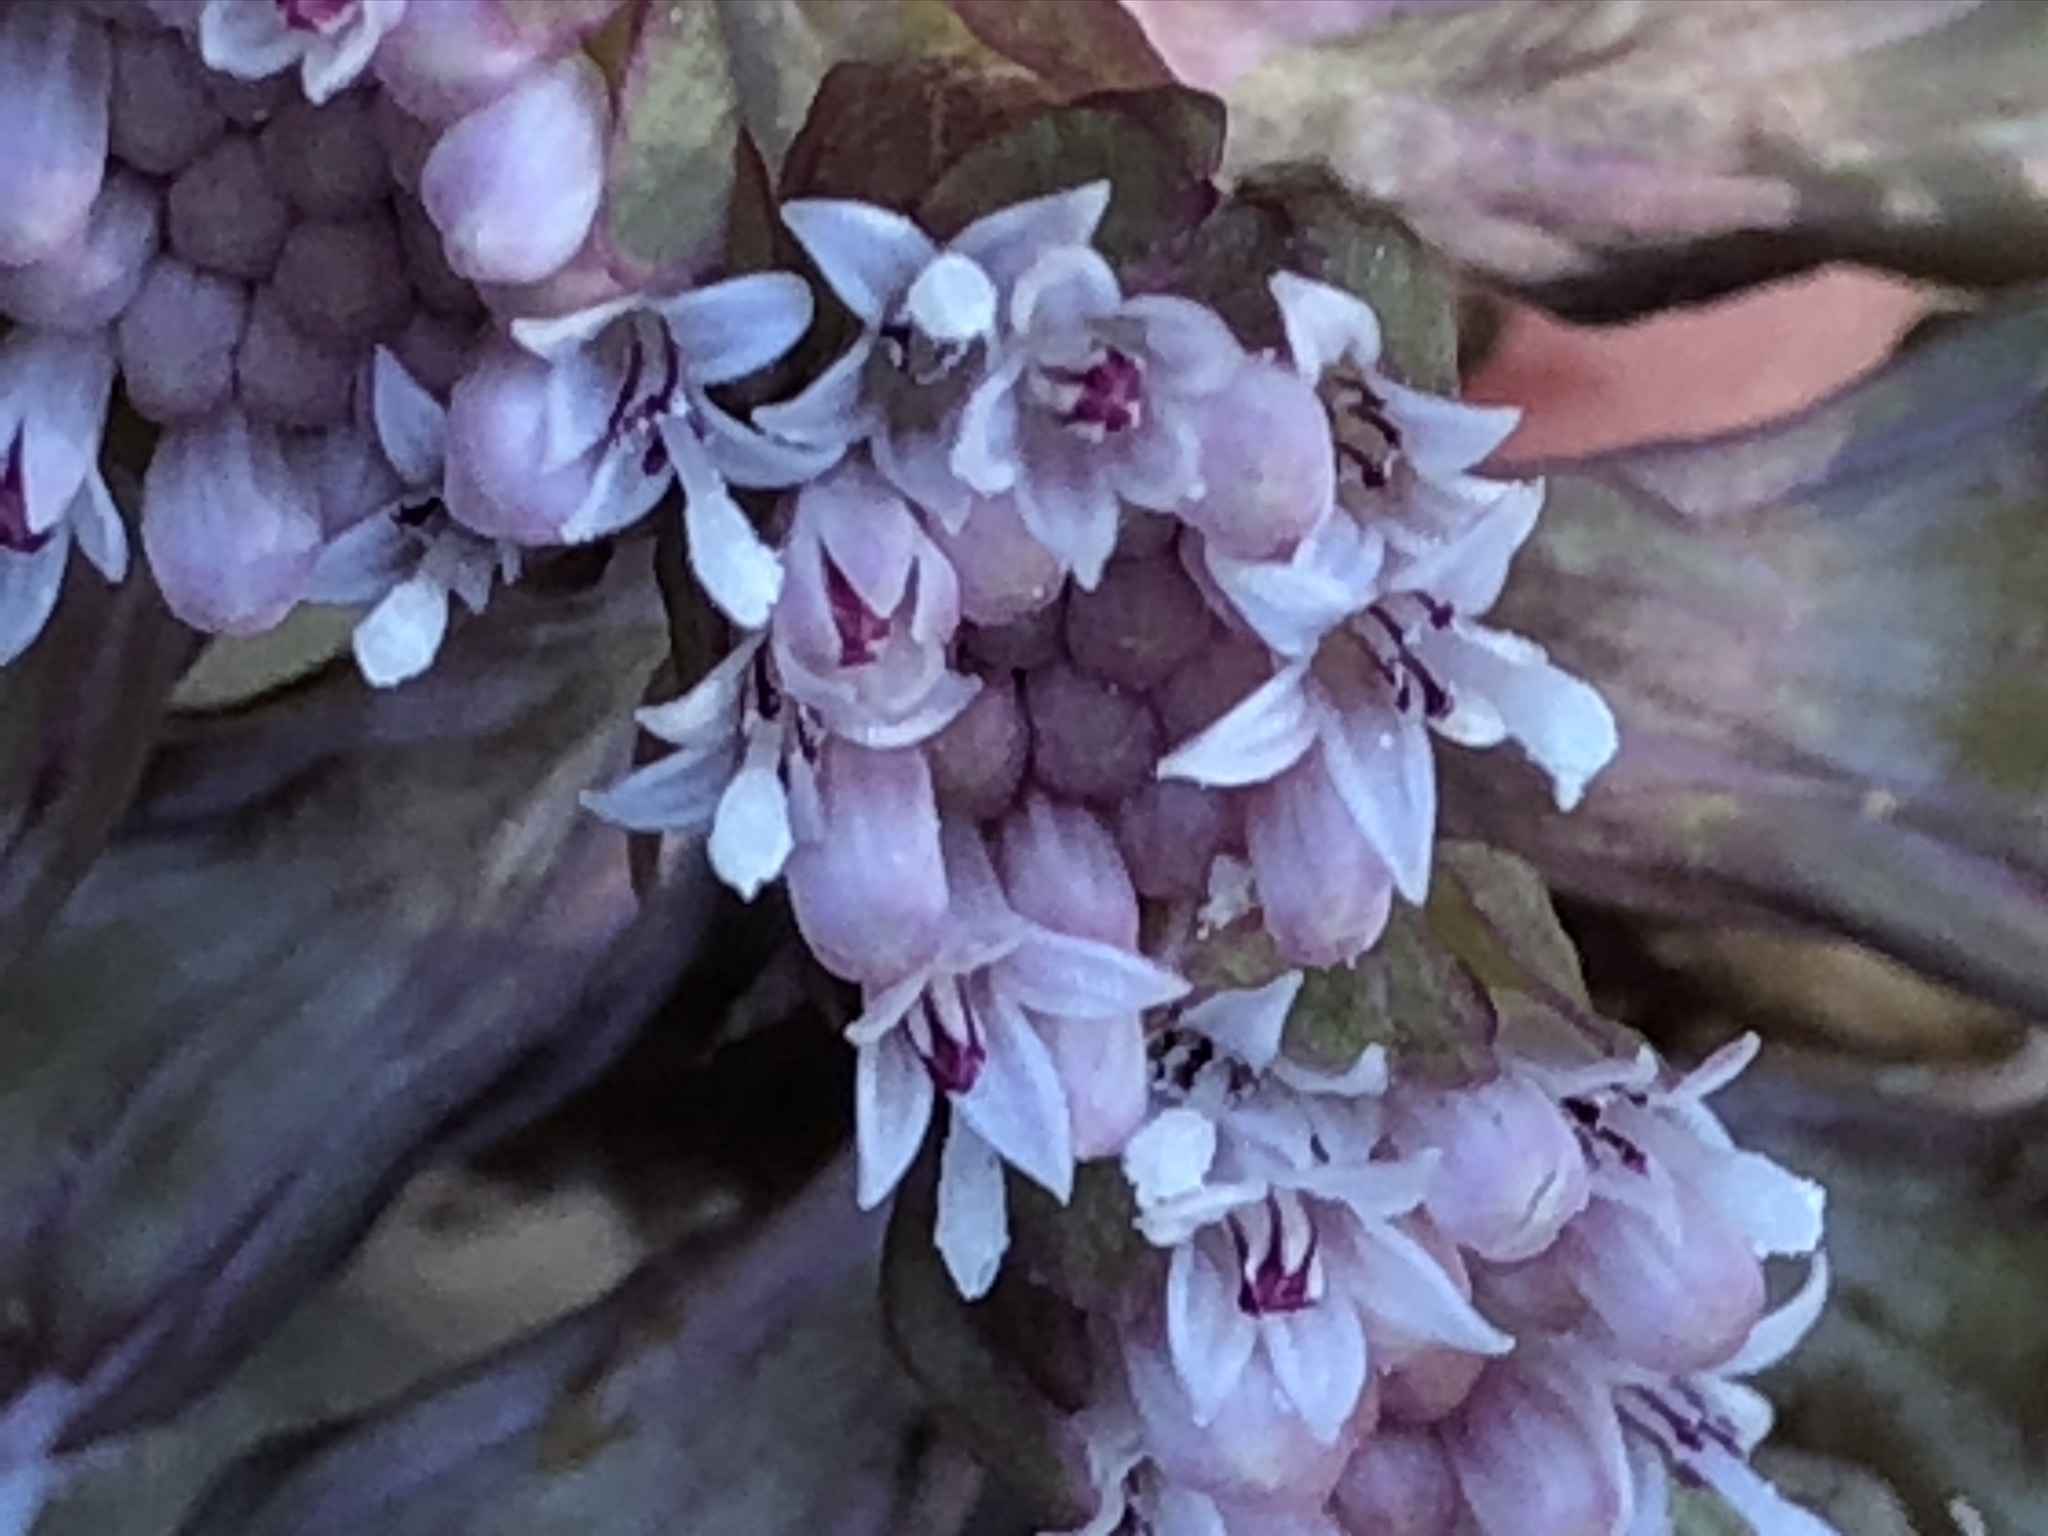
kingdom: Plantae
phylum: Tracheophyta
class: Magnoliopsida
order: Asterales
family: Asteraceae
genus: Petasites
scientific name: Petasites hybridus
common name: Butterbur
